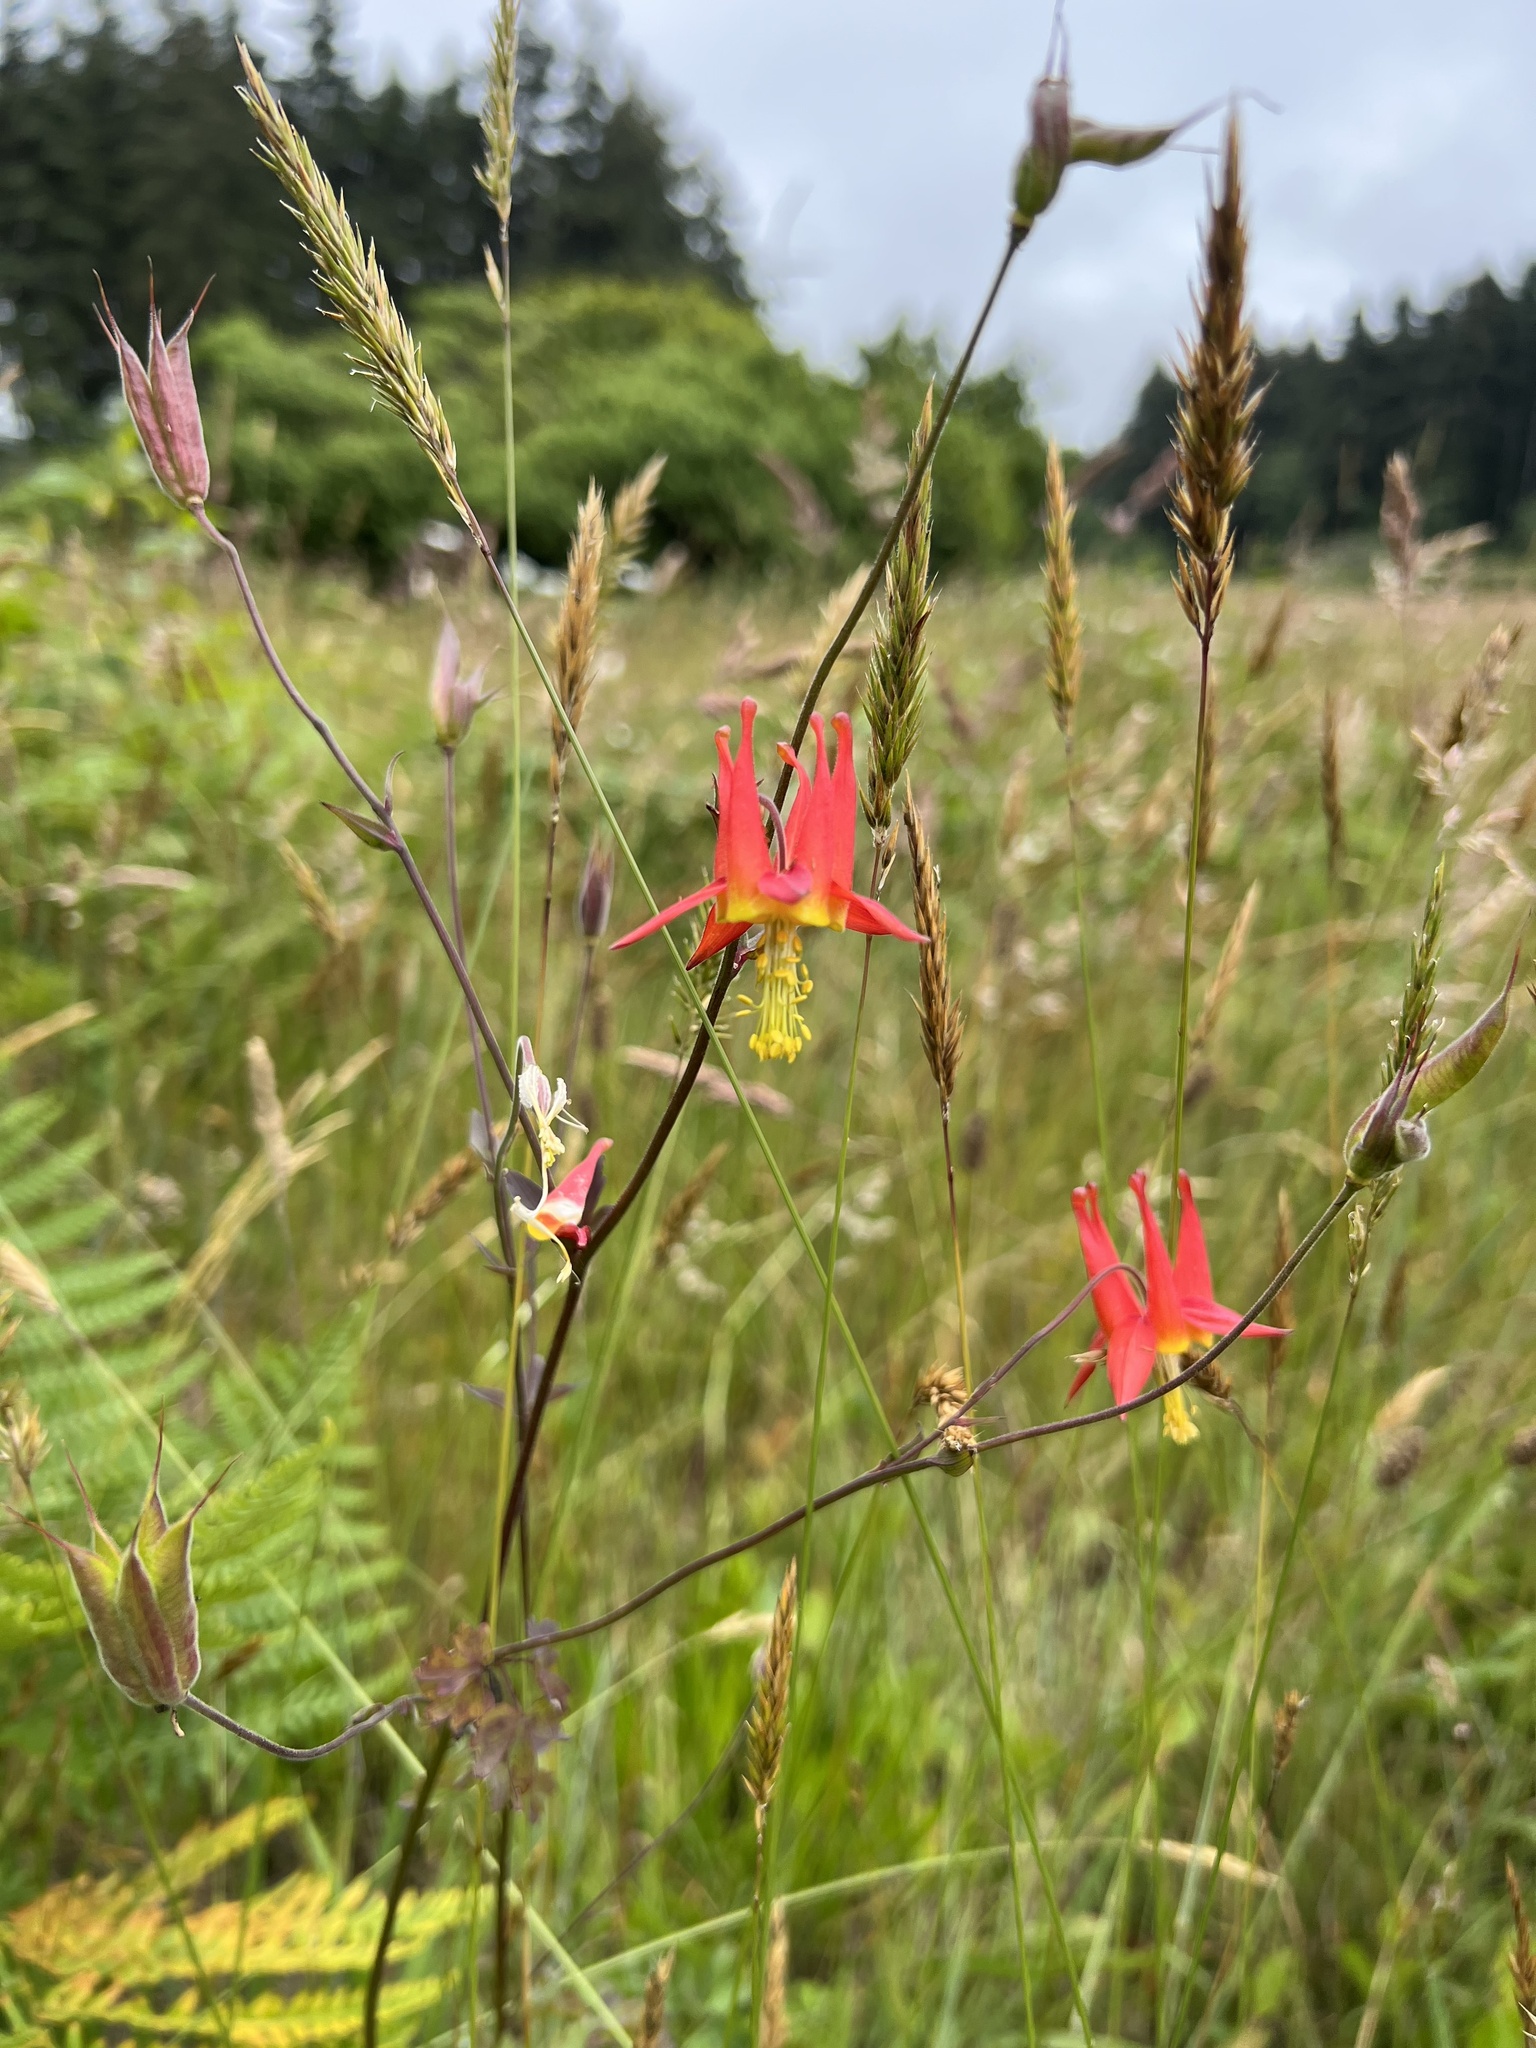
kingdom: Plantae
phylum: Tracheophyta
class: Magnoliopsida
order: Ranunculales
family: Ranunculaceae
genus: Aquilegia
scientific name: Aquilegia formosa
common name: Sitka columbine
